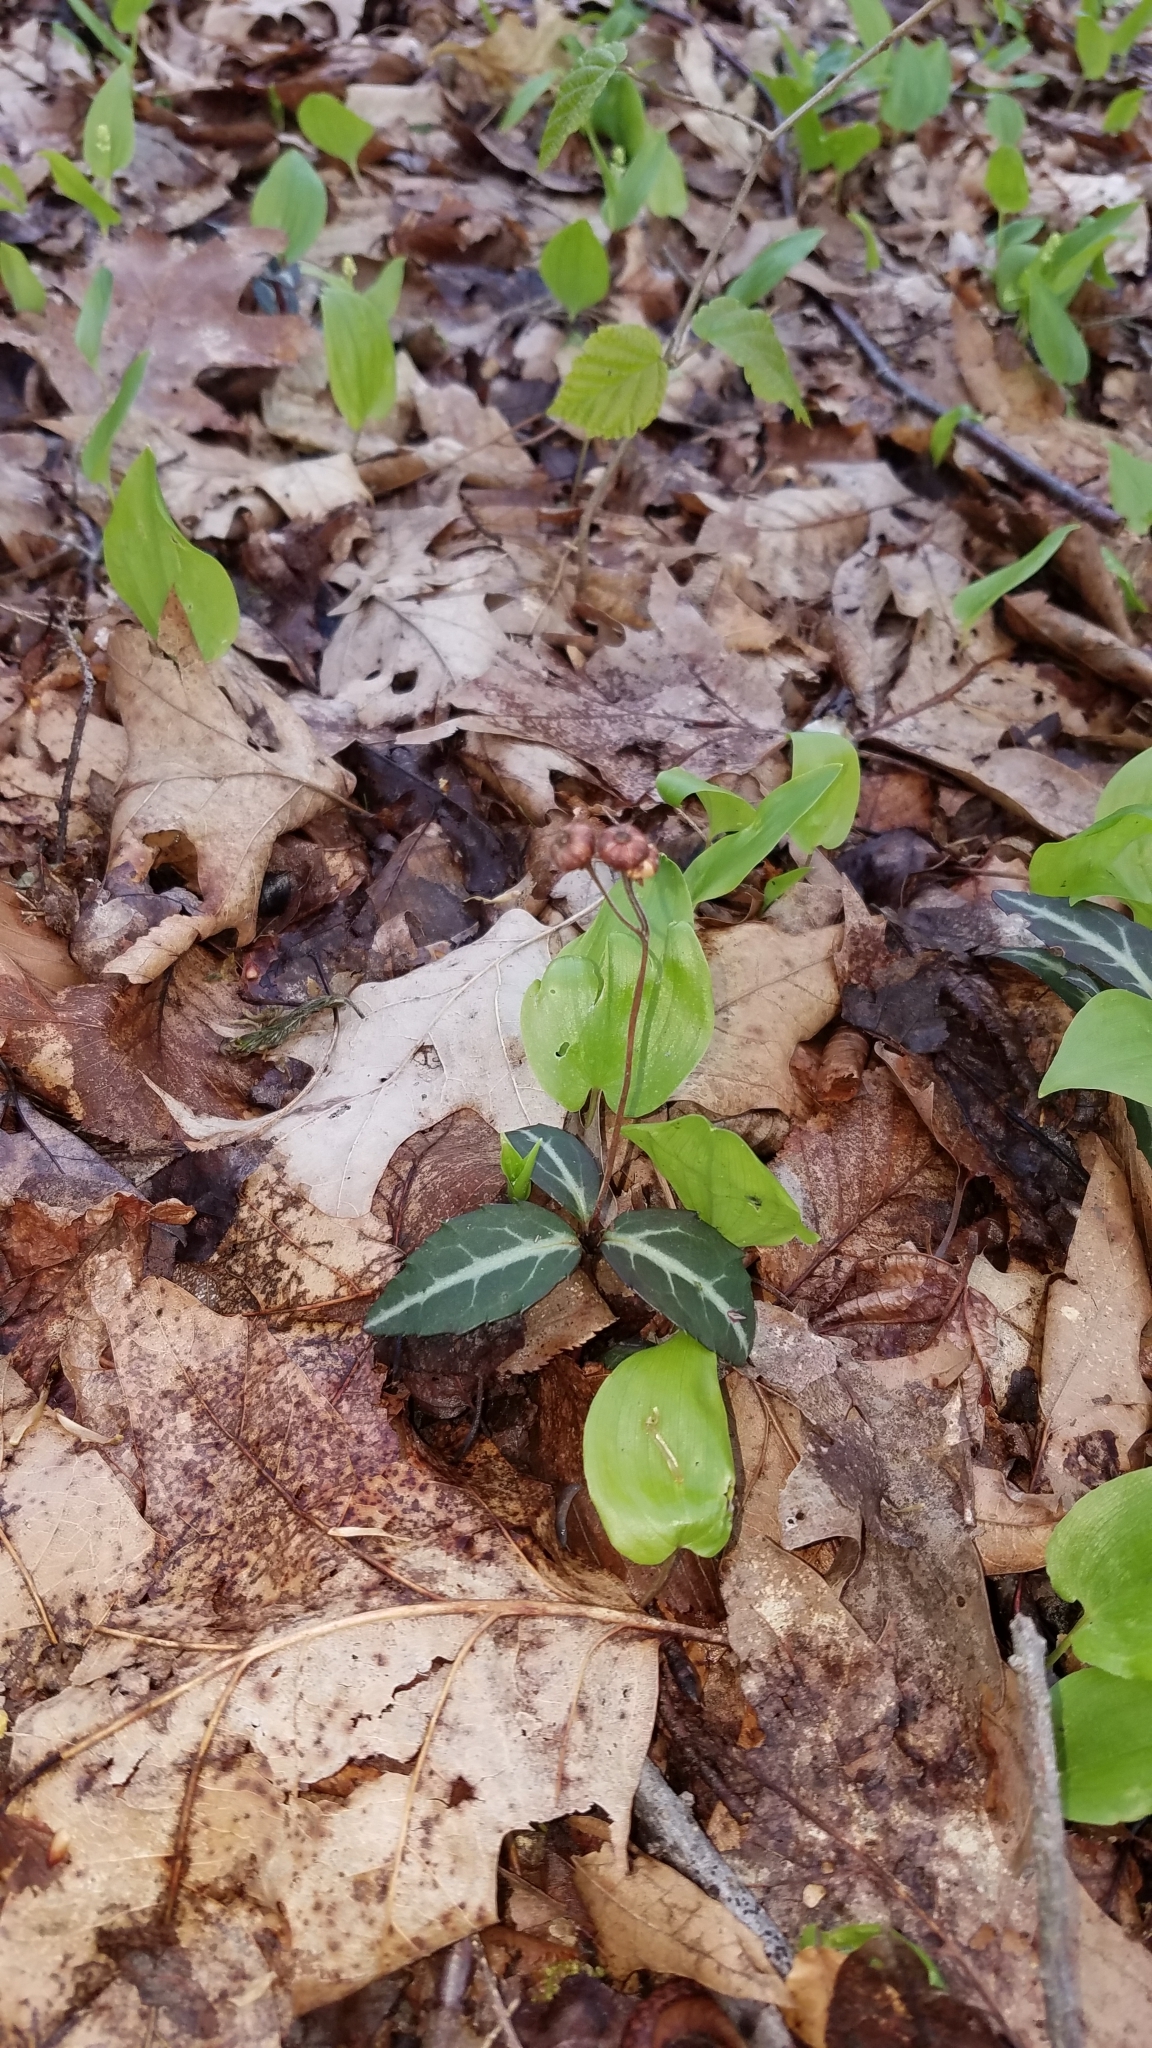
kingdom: Plantae
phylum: Tracheophyta
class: Magnoliopsida
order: Ericales
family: Ericaceae
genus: Chimaphila
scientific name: Chimaphila maculata
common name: Spotted pipsissewa
